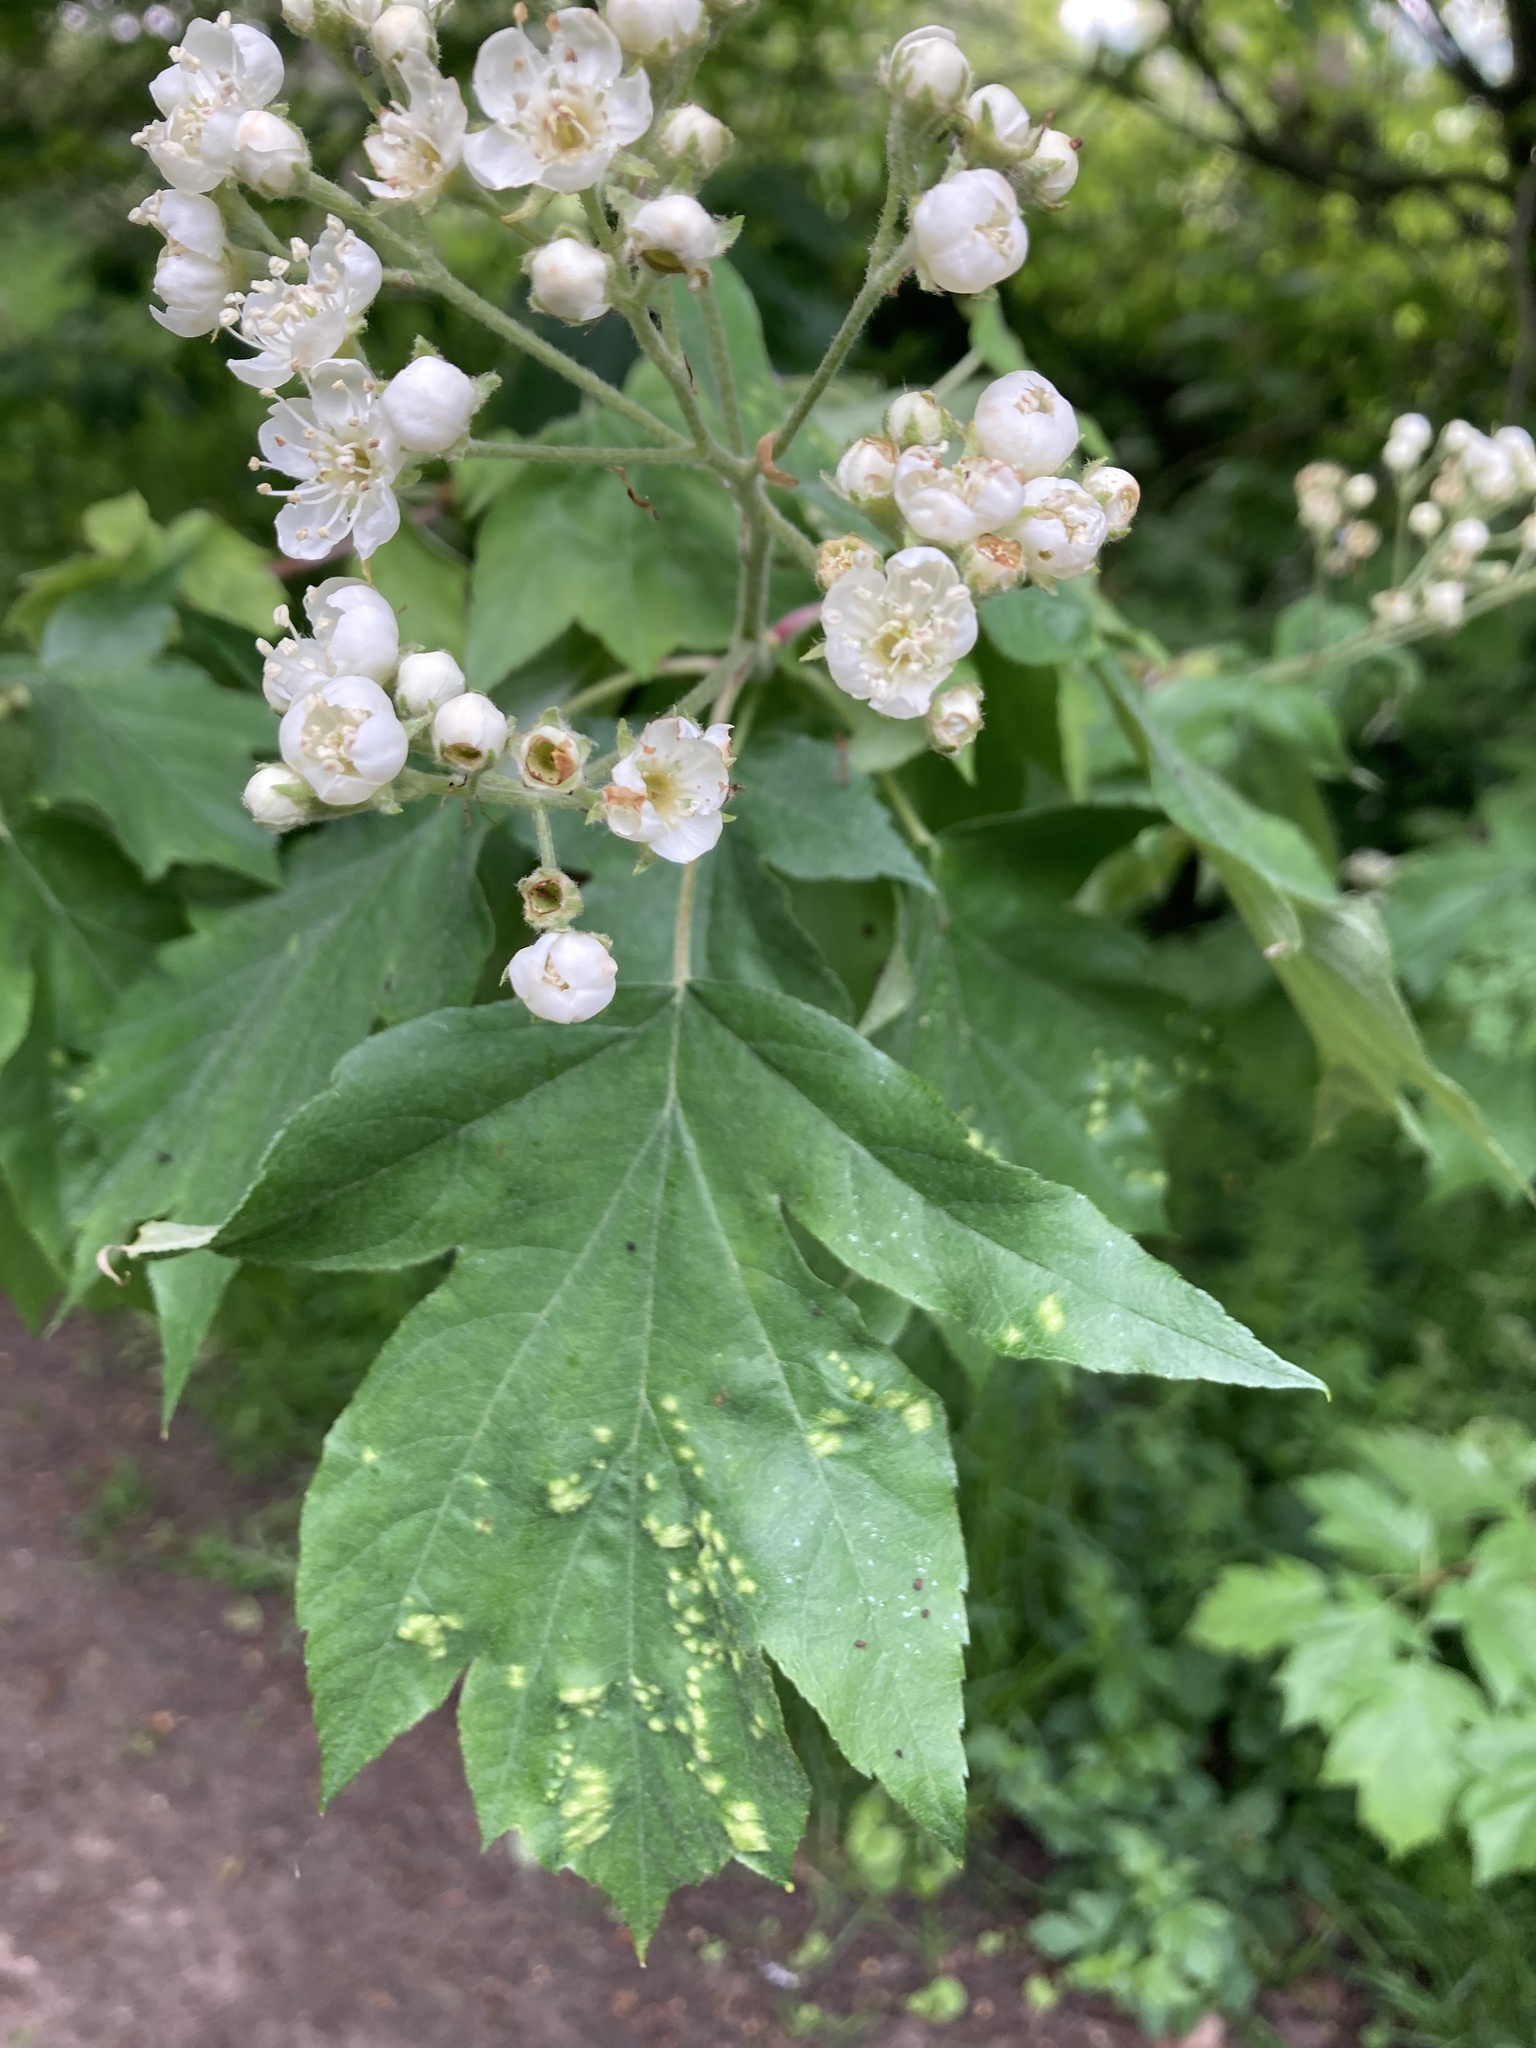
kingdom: Plantae
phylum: Tracheophyta
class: Magnoliopsida
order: Rosales
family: Rosaceae
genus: Torminalis
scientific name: Torminalis glaberrima
